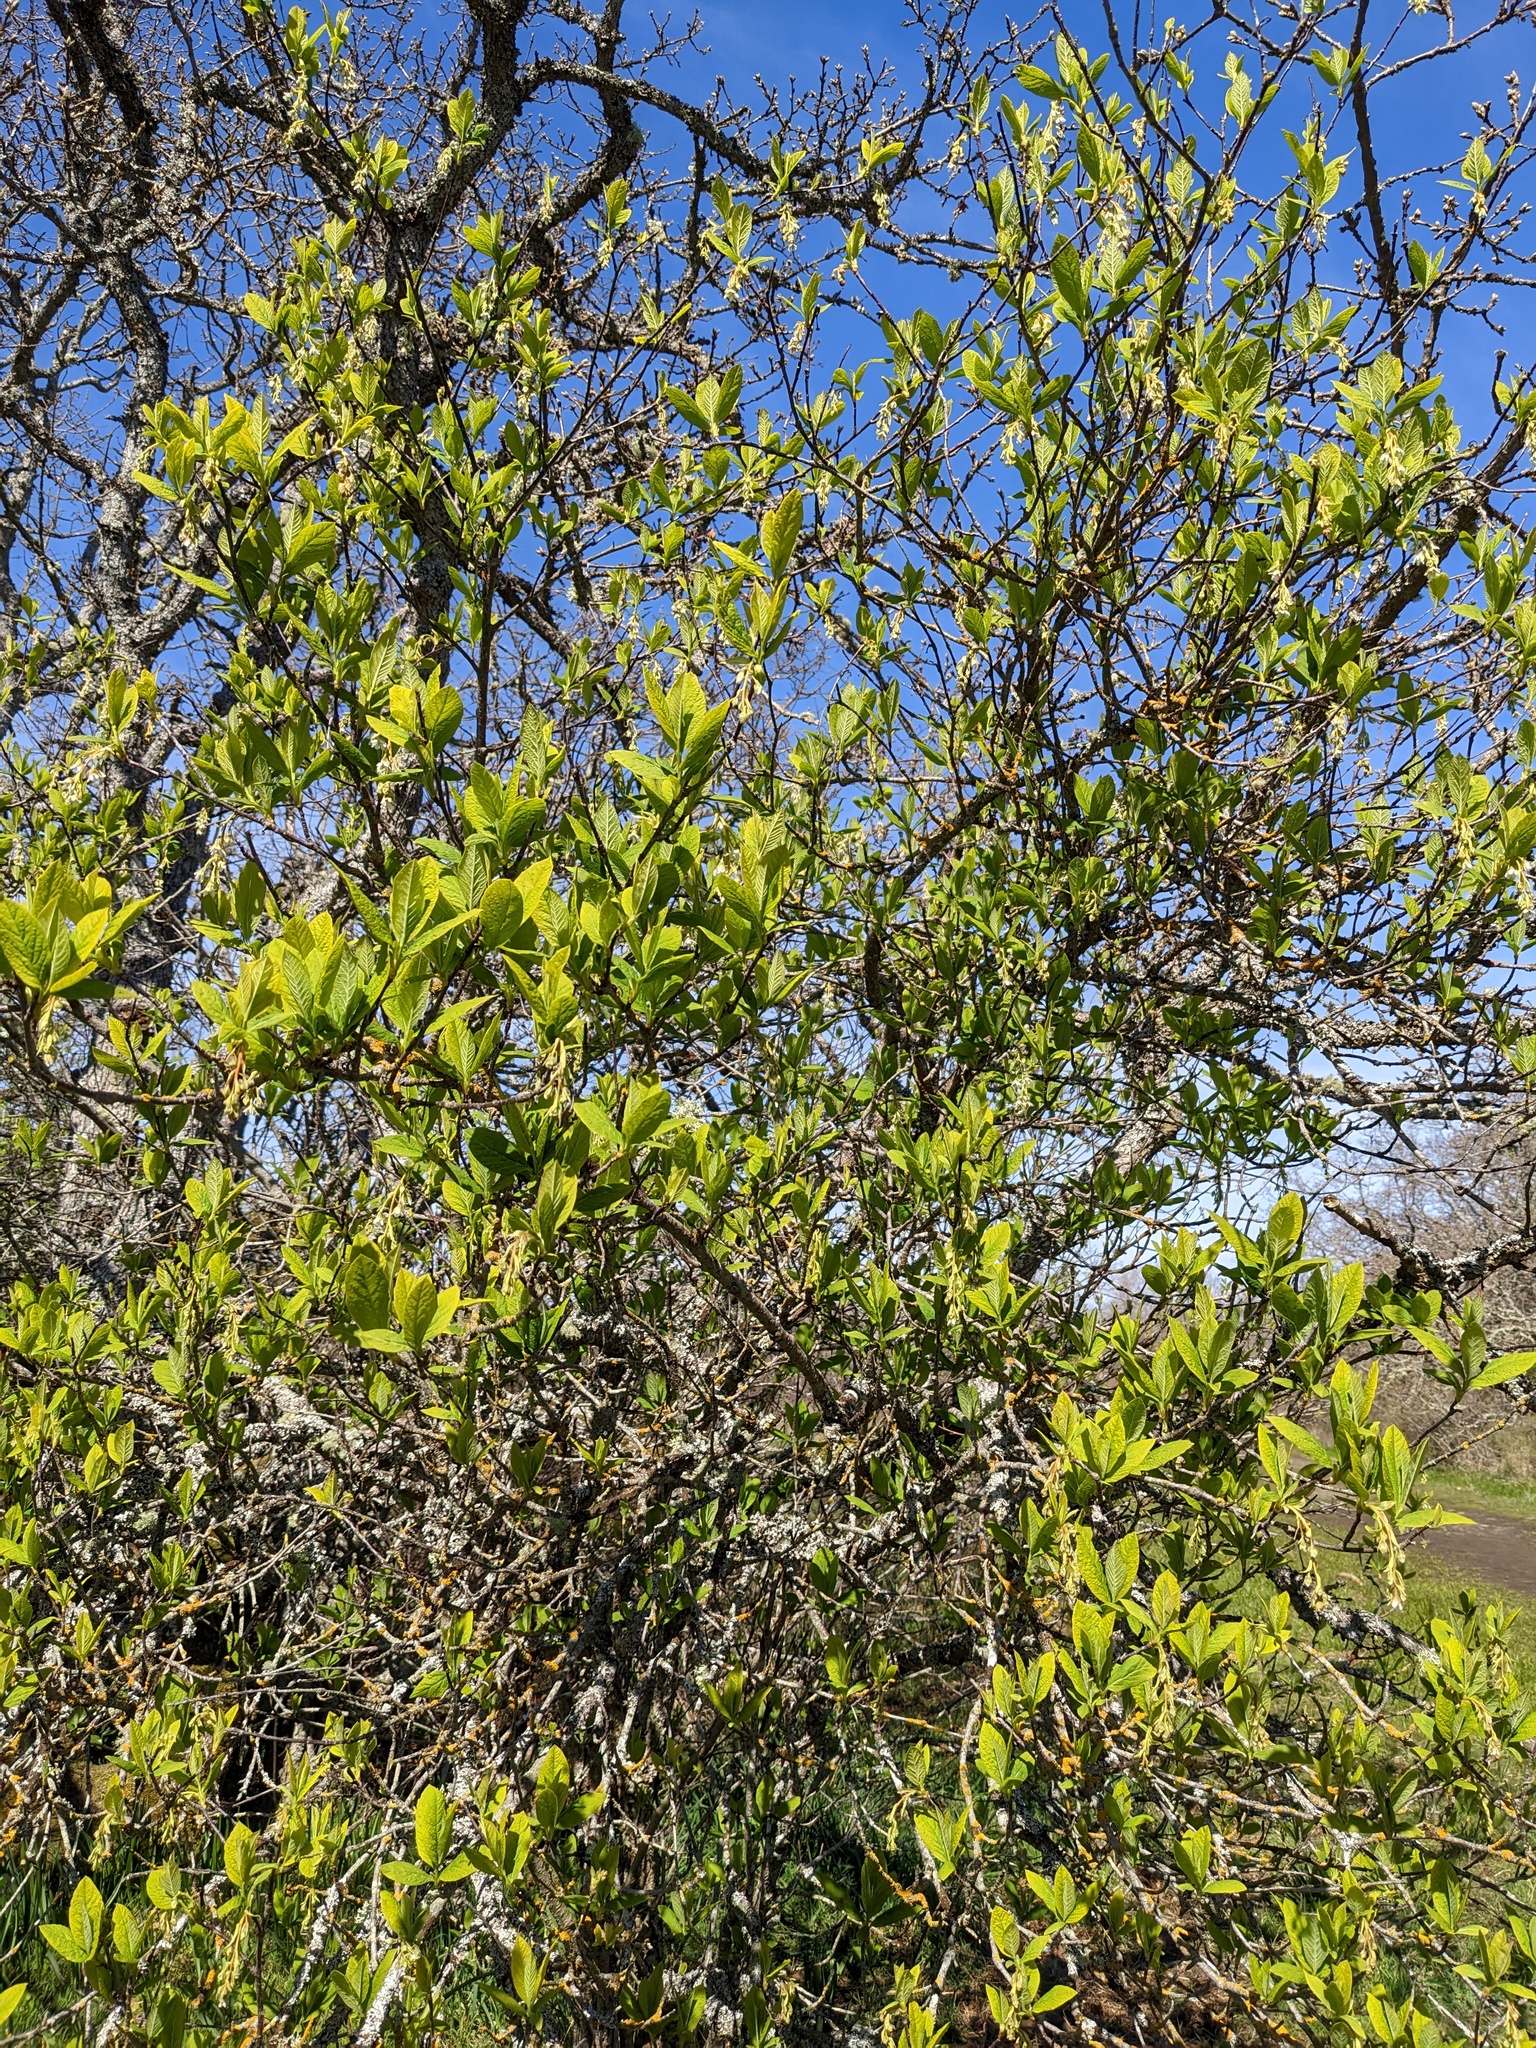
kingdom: Plantae
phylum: Tracheophyta
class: Magnoliopsida
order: Rosales
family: Rosaceae
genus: Oemleria
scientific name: Oemleria cerasiformis
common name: Osoberry
